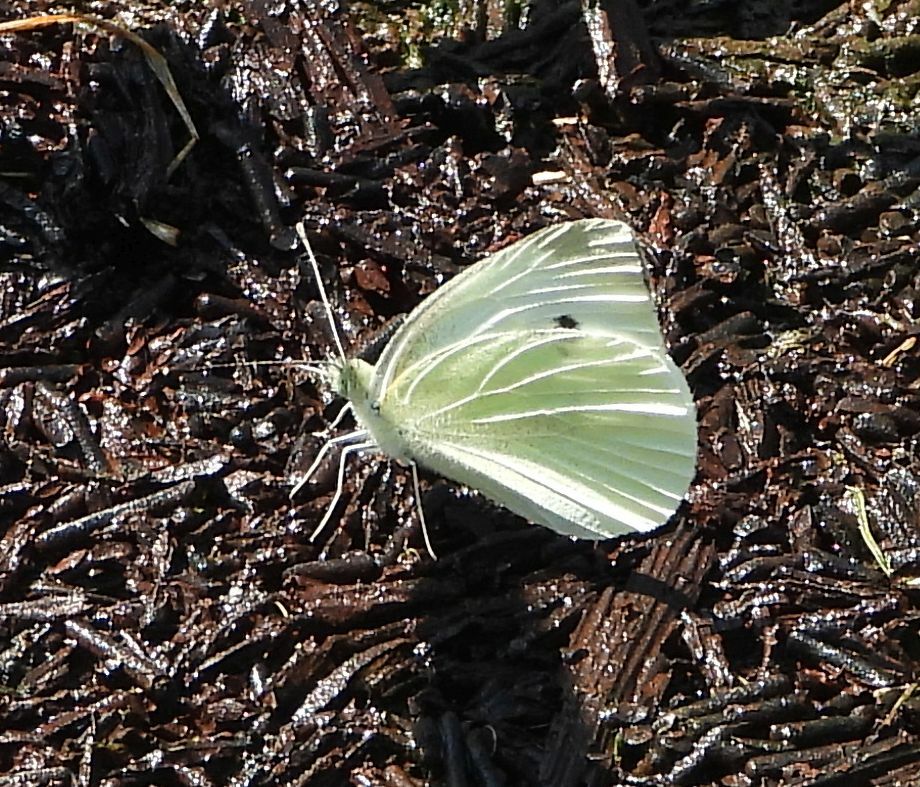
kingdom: Animalia
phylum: Arthropoda
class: Insecta
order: Lepidoptera
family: Pieridae
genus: Pieris
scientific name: Pieris rapae
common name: Small white
